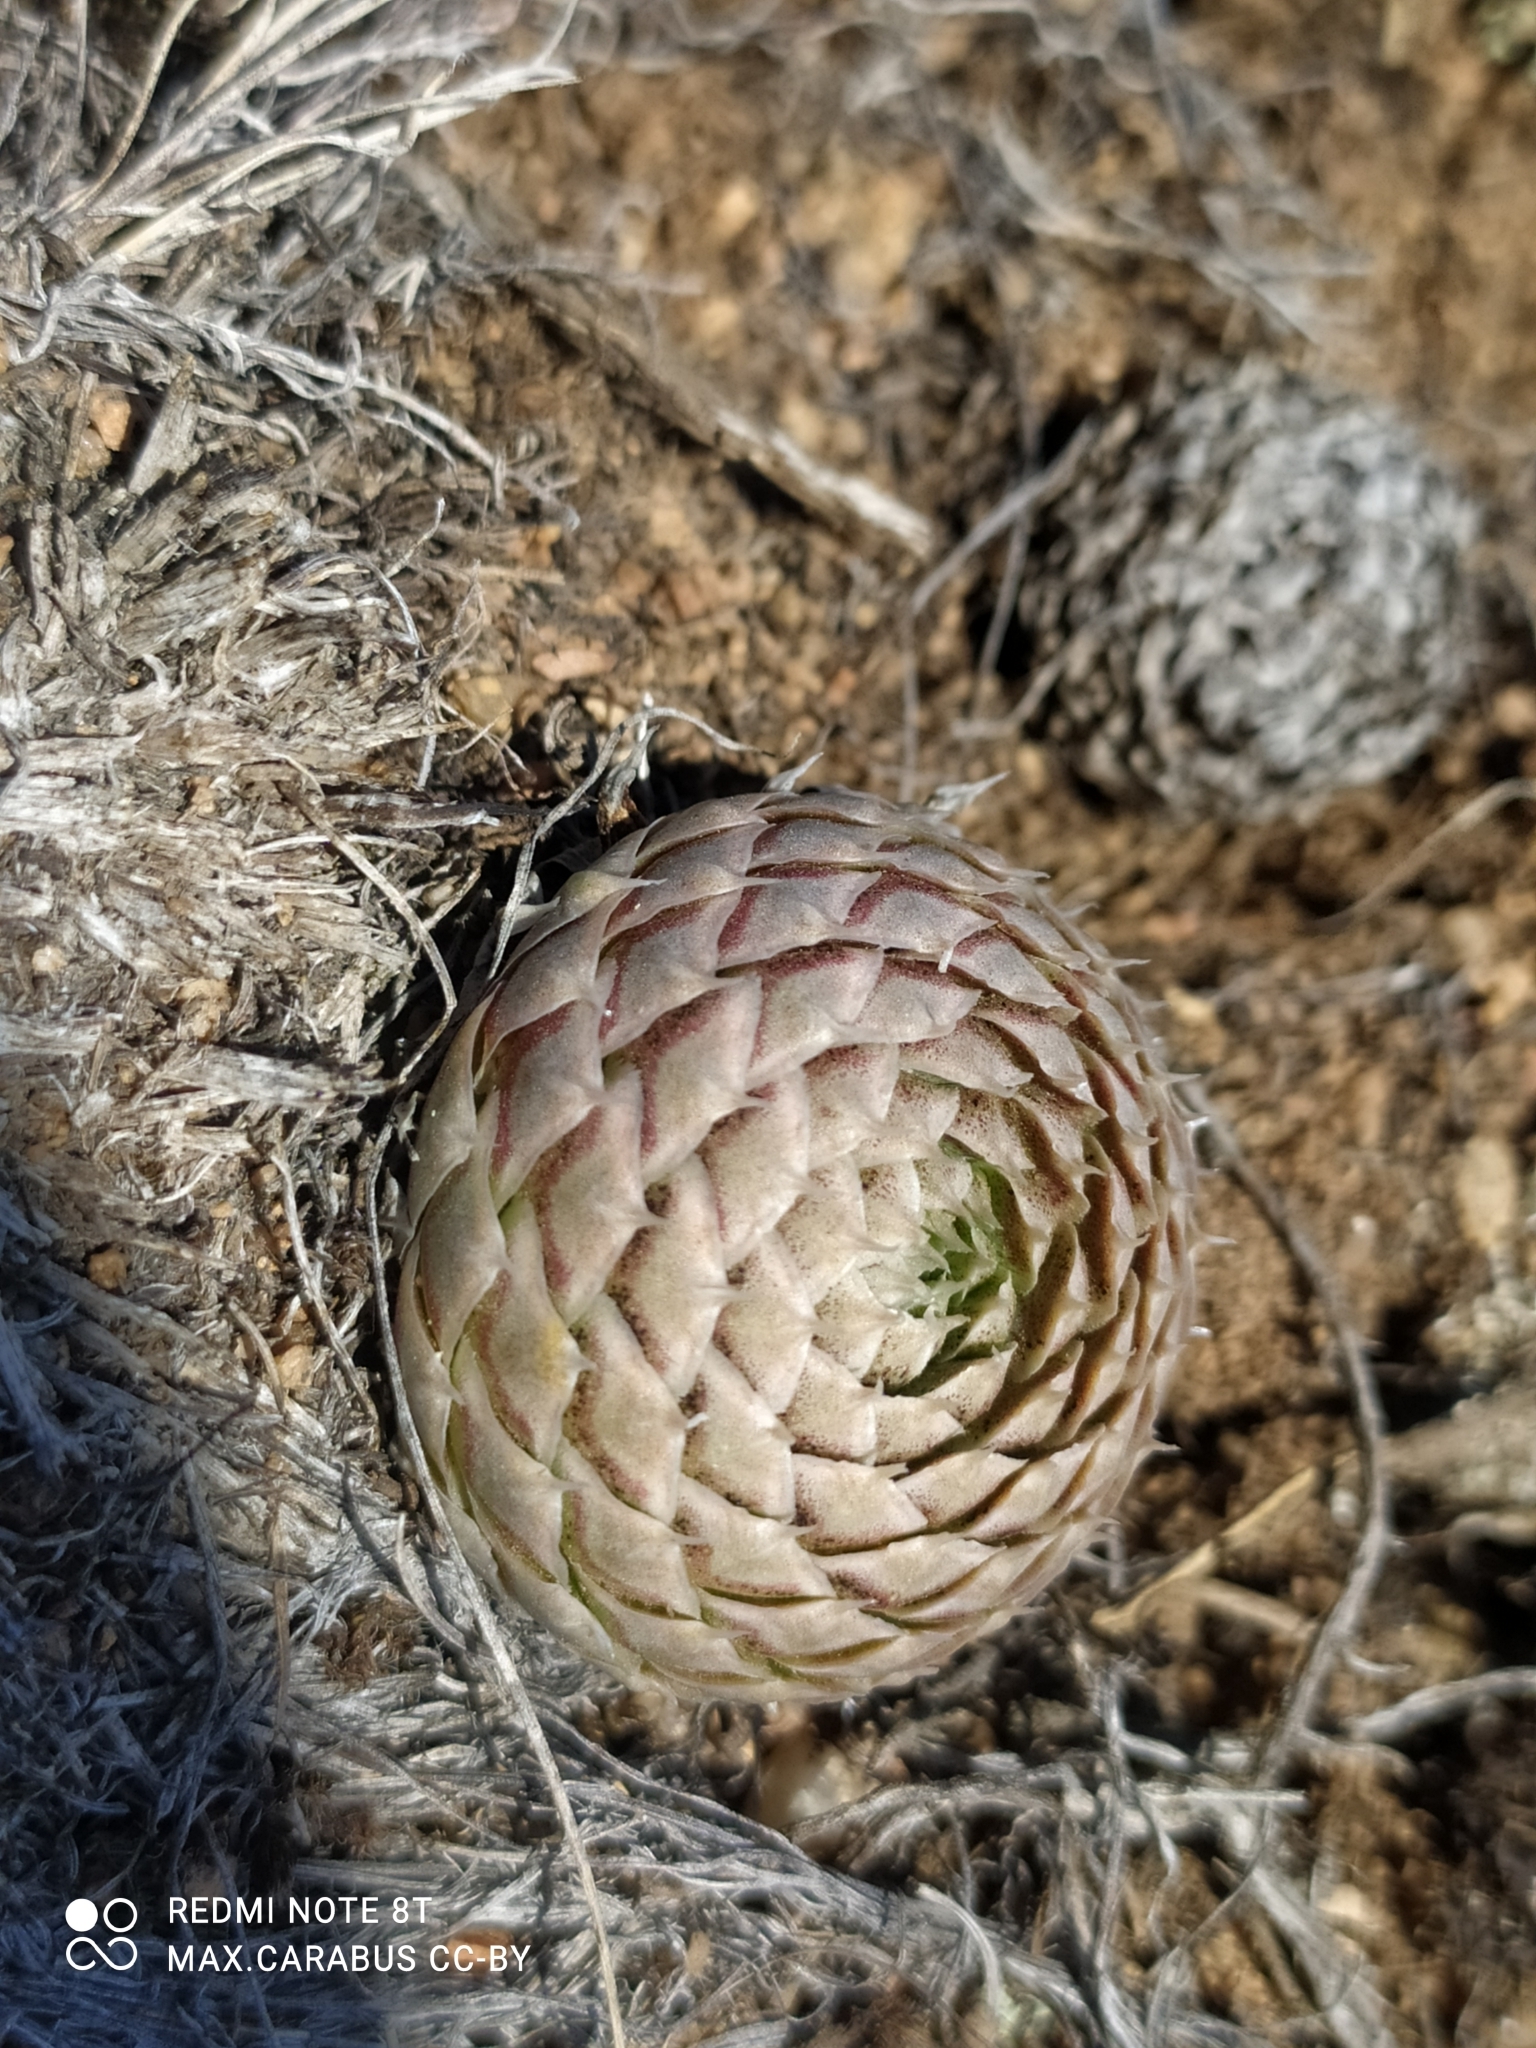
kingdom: Plantae
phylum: Tracheophyta
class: Magnoliopsida
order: Saxifragales
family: Crassulaceae
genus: Orostachys
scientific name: Orostachys spinosa
